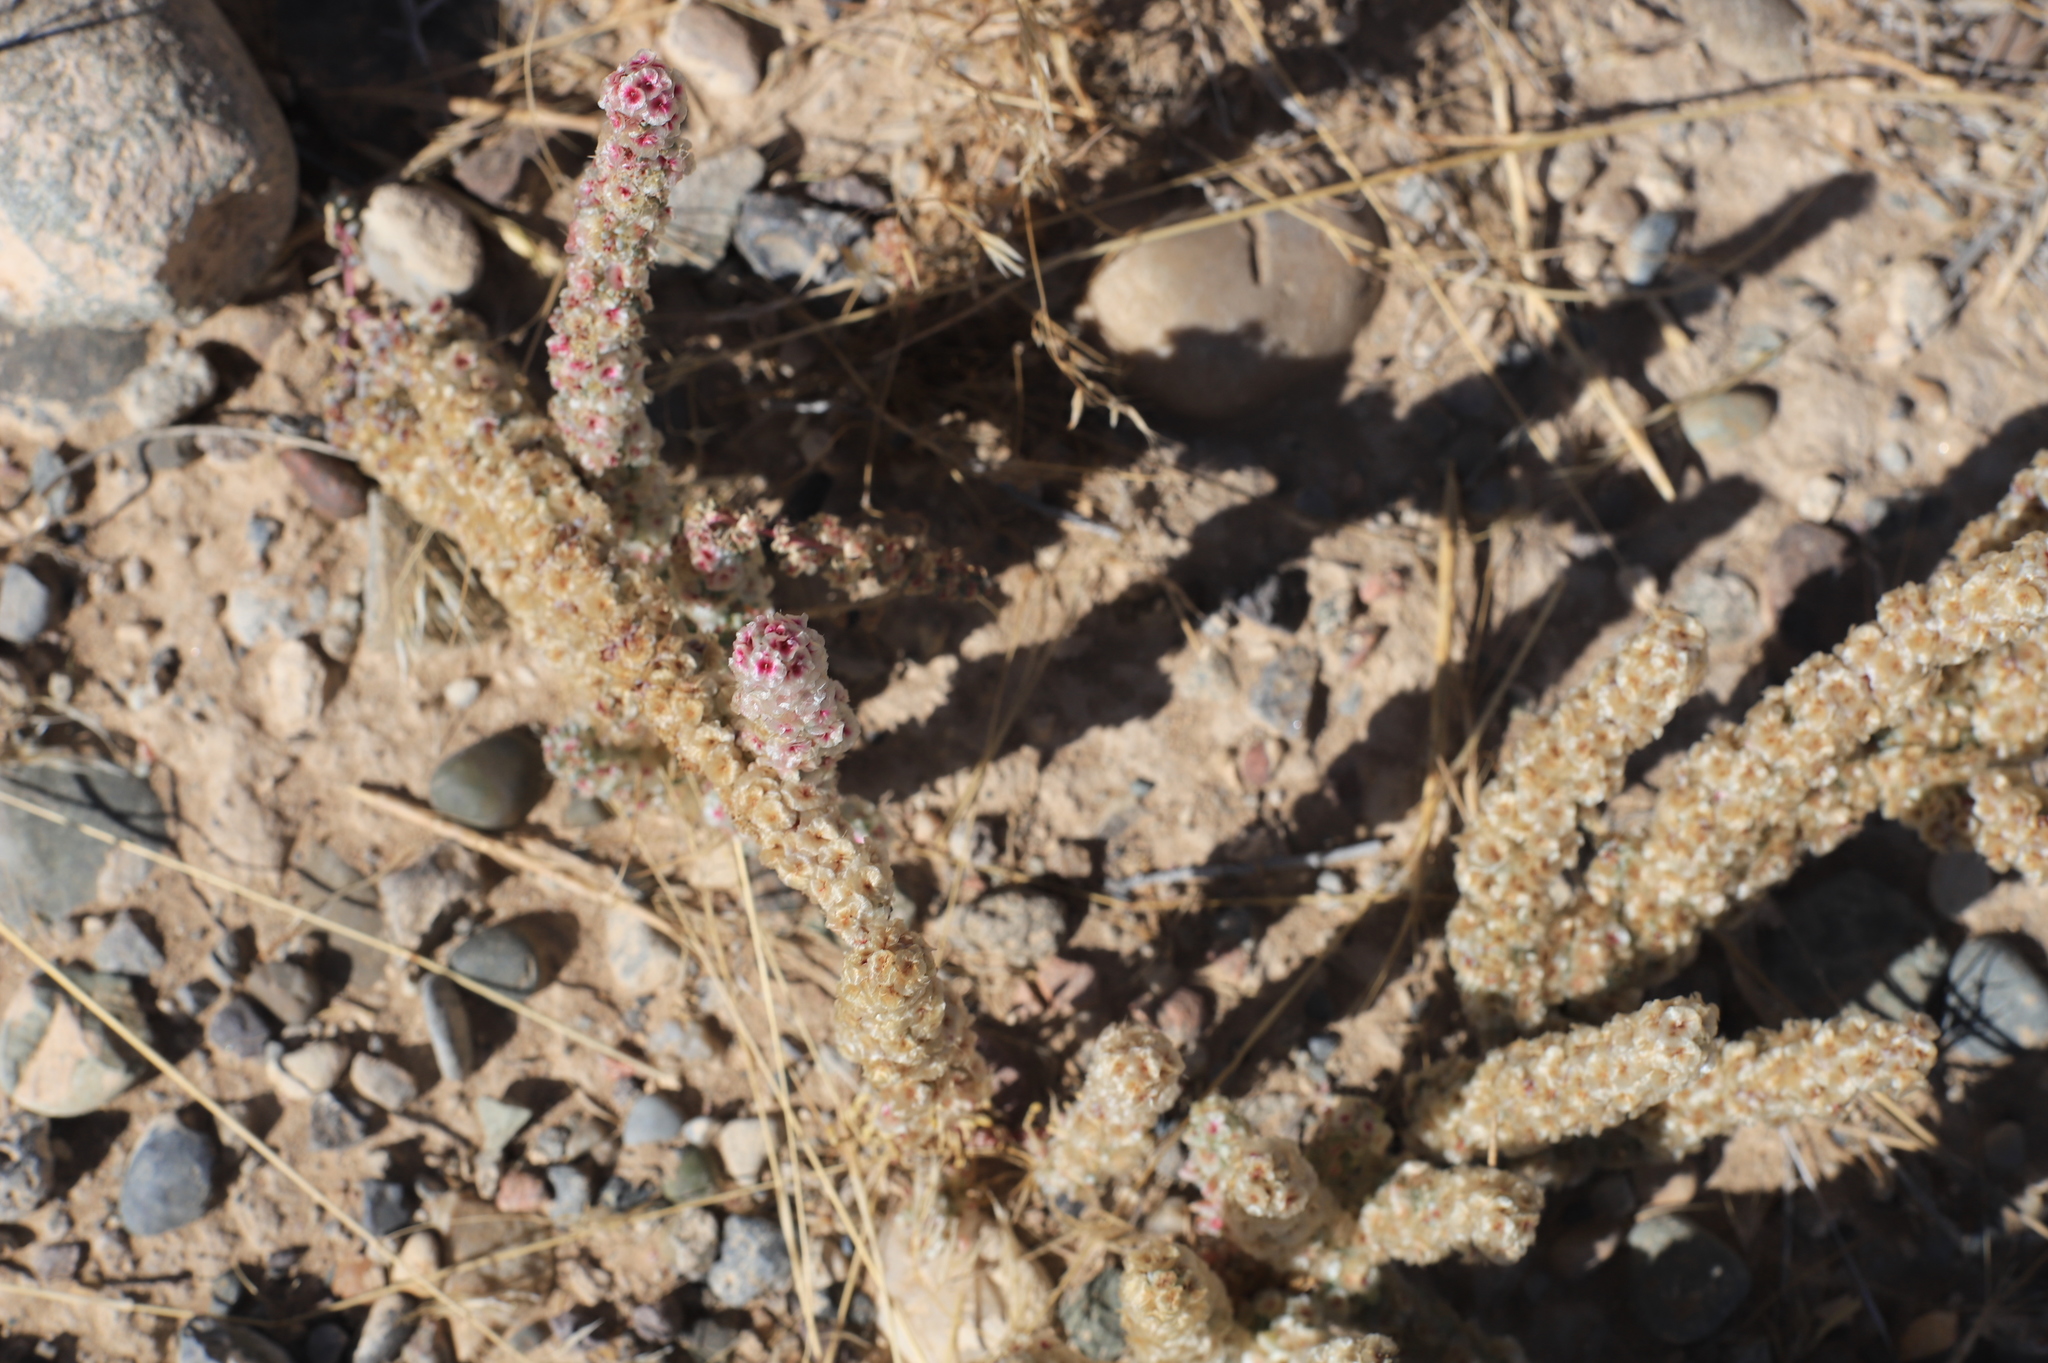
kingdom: Plantae
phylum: Tracheophyta
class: Magnoliopsida
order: Caryophyllales
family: Amaranthaceae
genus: Halogeton
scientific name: Halogeton glomeratus
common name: Saltlover
